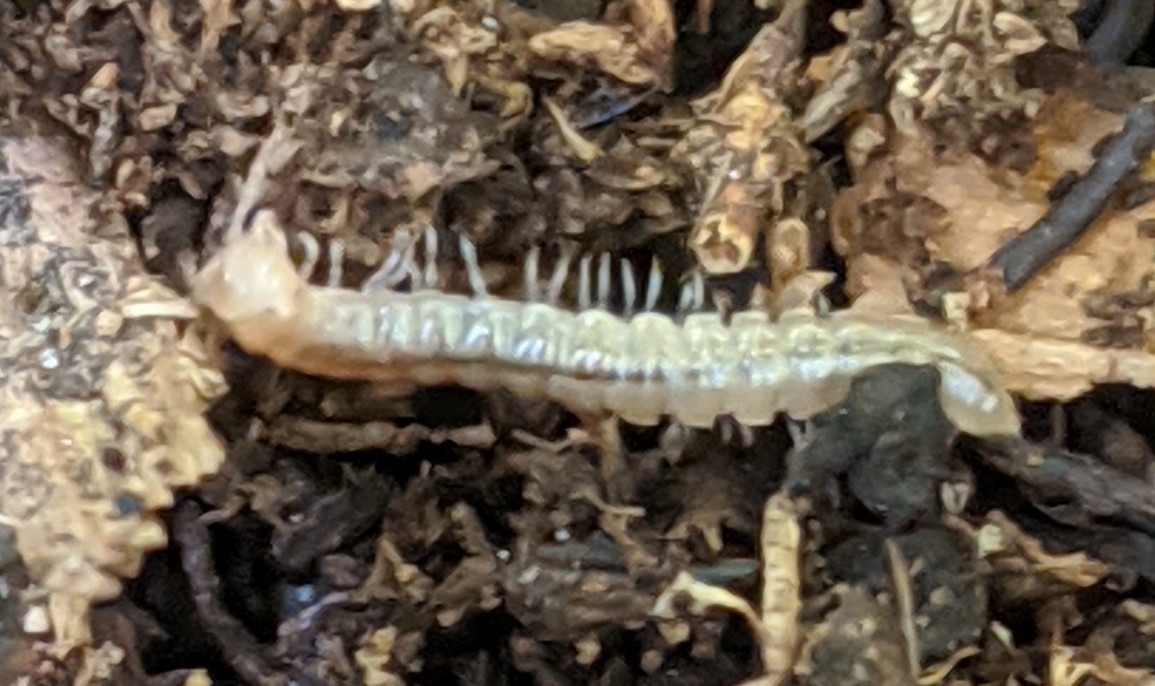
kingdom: Animalia
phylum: Arthropoda
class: Diplopoda
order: Polydesmida
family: Paradoxosomatidae
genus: Oxidus
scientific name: Oxidus gracilis
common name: Greenhouse millipede
